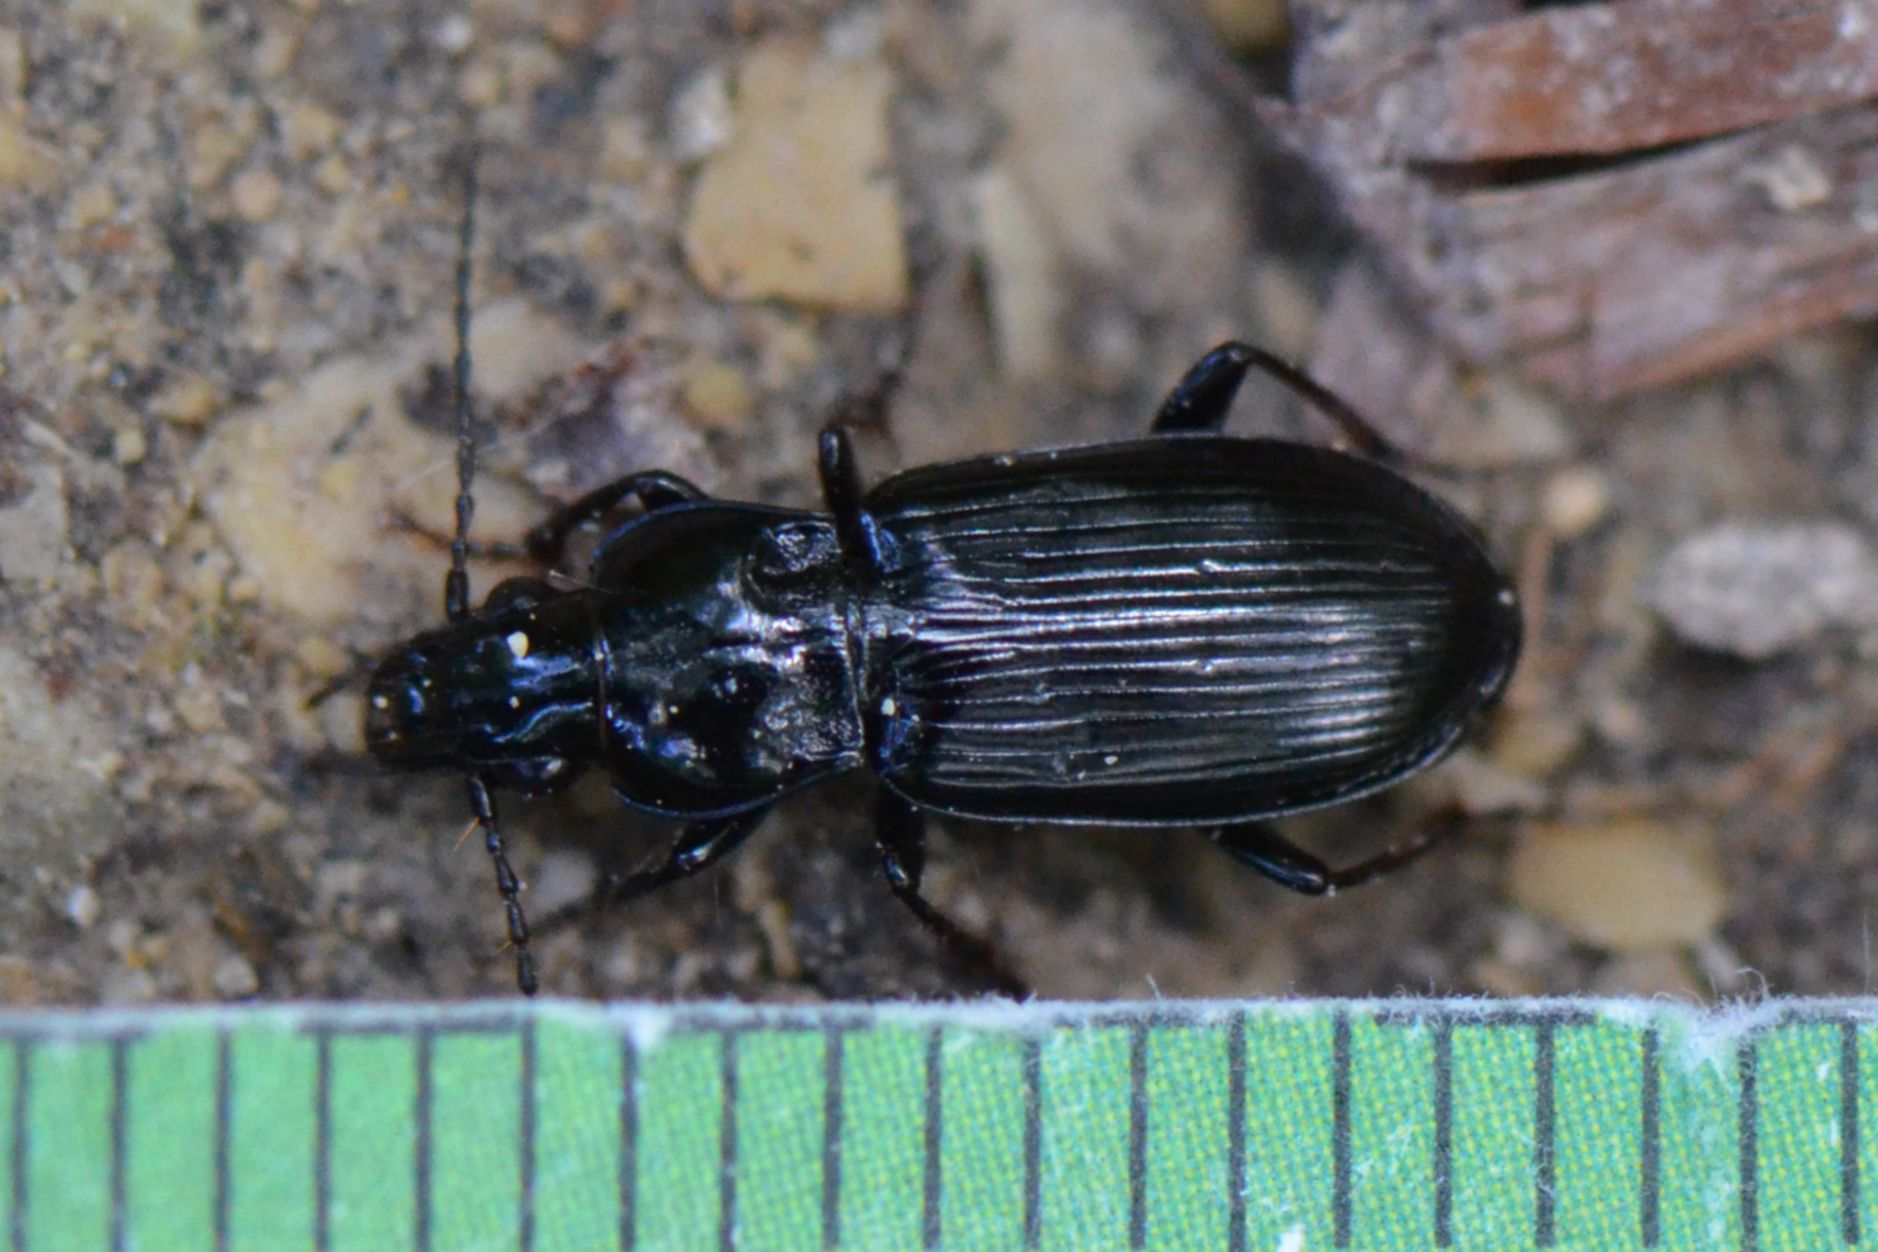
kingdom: Animalia
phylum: Arthropoda
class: Insecta
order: Coleoptera
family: Carabidae
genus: Pterostichus
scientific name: Pterostichus anthracinus
